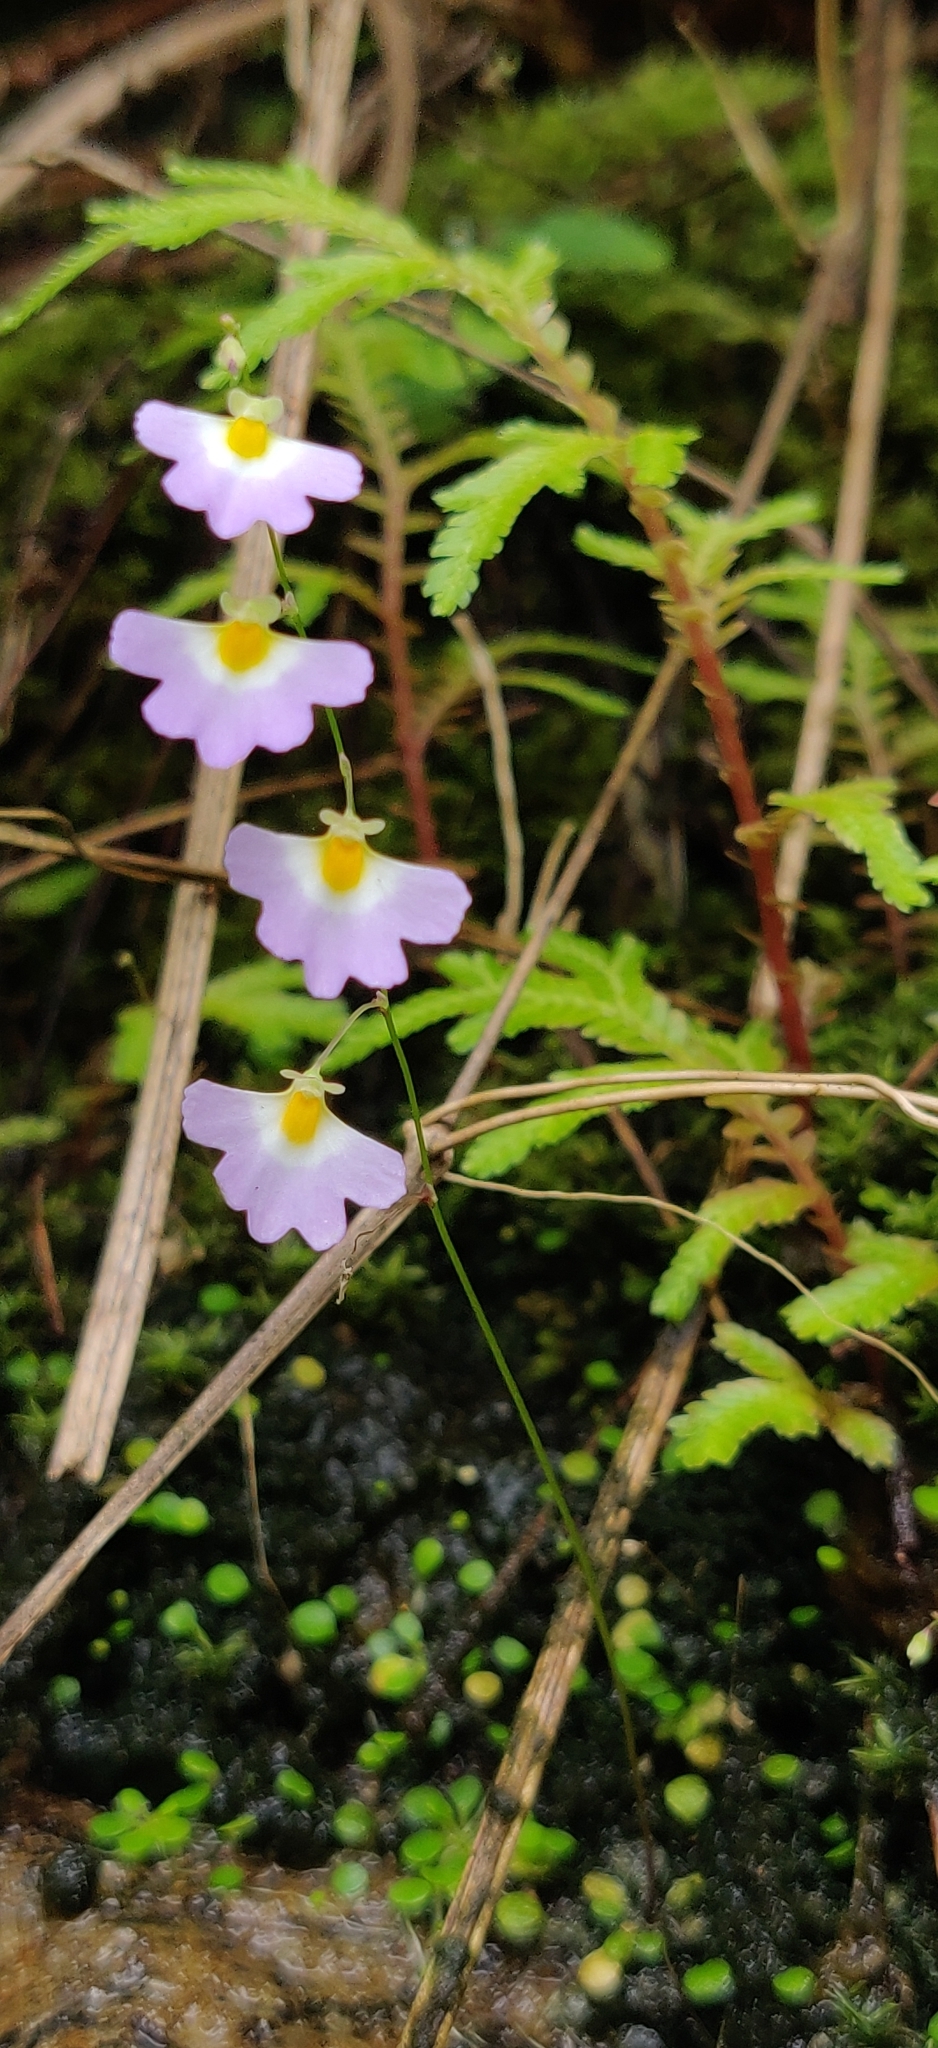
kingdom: Plantae
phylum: Tracheophyta
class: Magnoliopsida
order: Lamiales
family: Lentibulariaceae
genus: Utricularia
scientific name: Utricularia striatula
